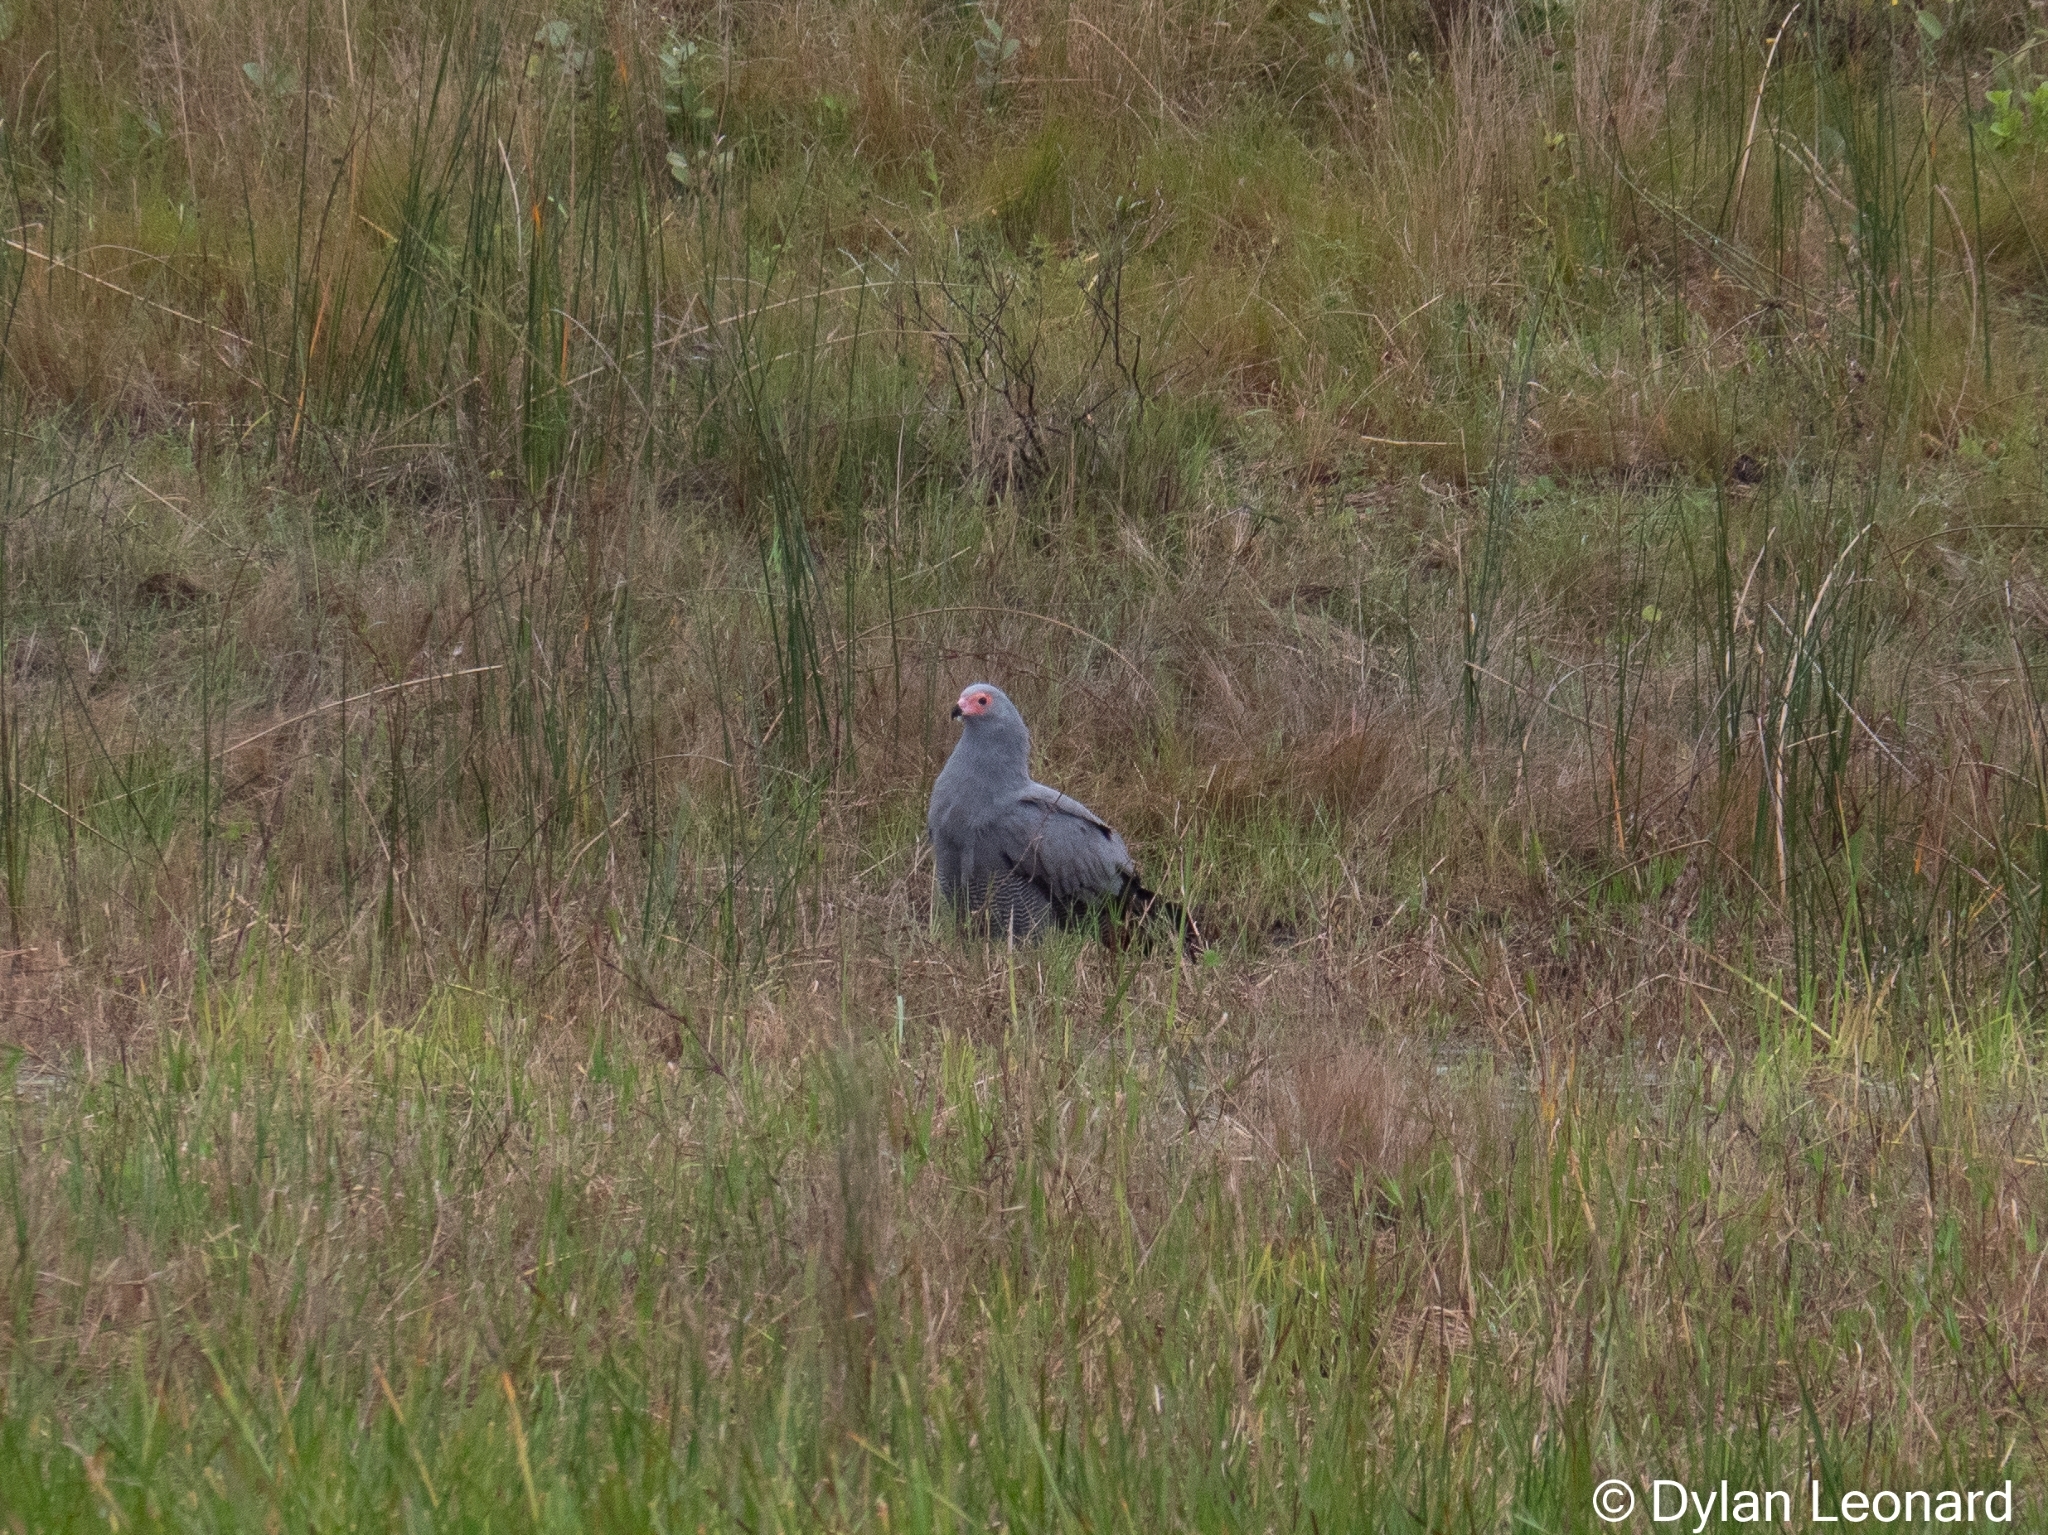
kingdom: Animalia
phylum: Chordata
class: Aves
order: Accipitriformes
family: Accipitridae
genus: Polyboroides
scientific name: Polyboroides typus
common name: African harrier-hawk
